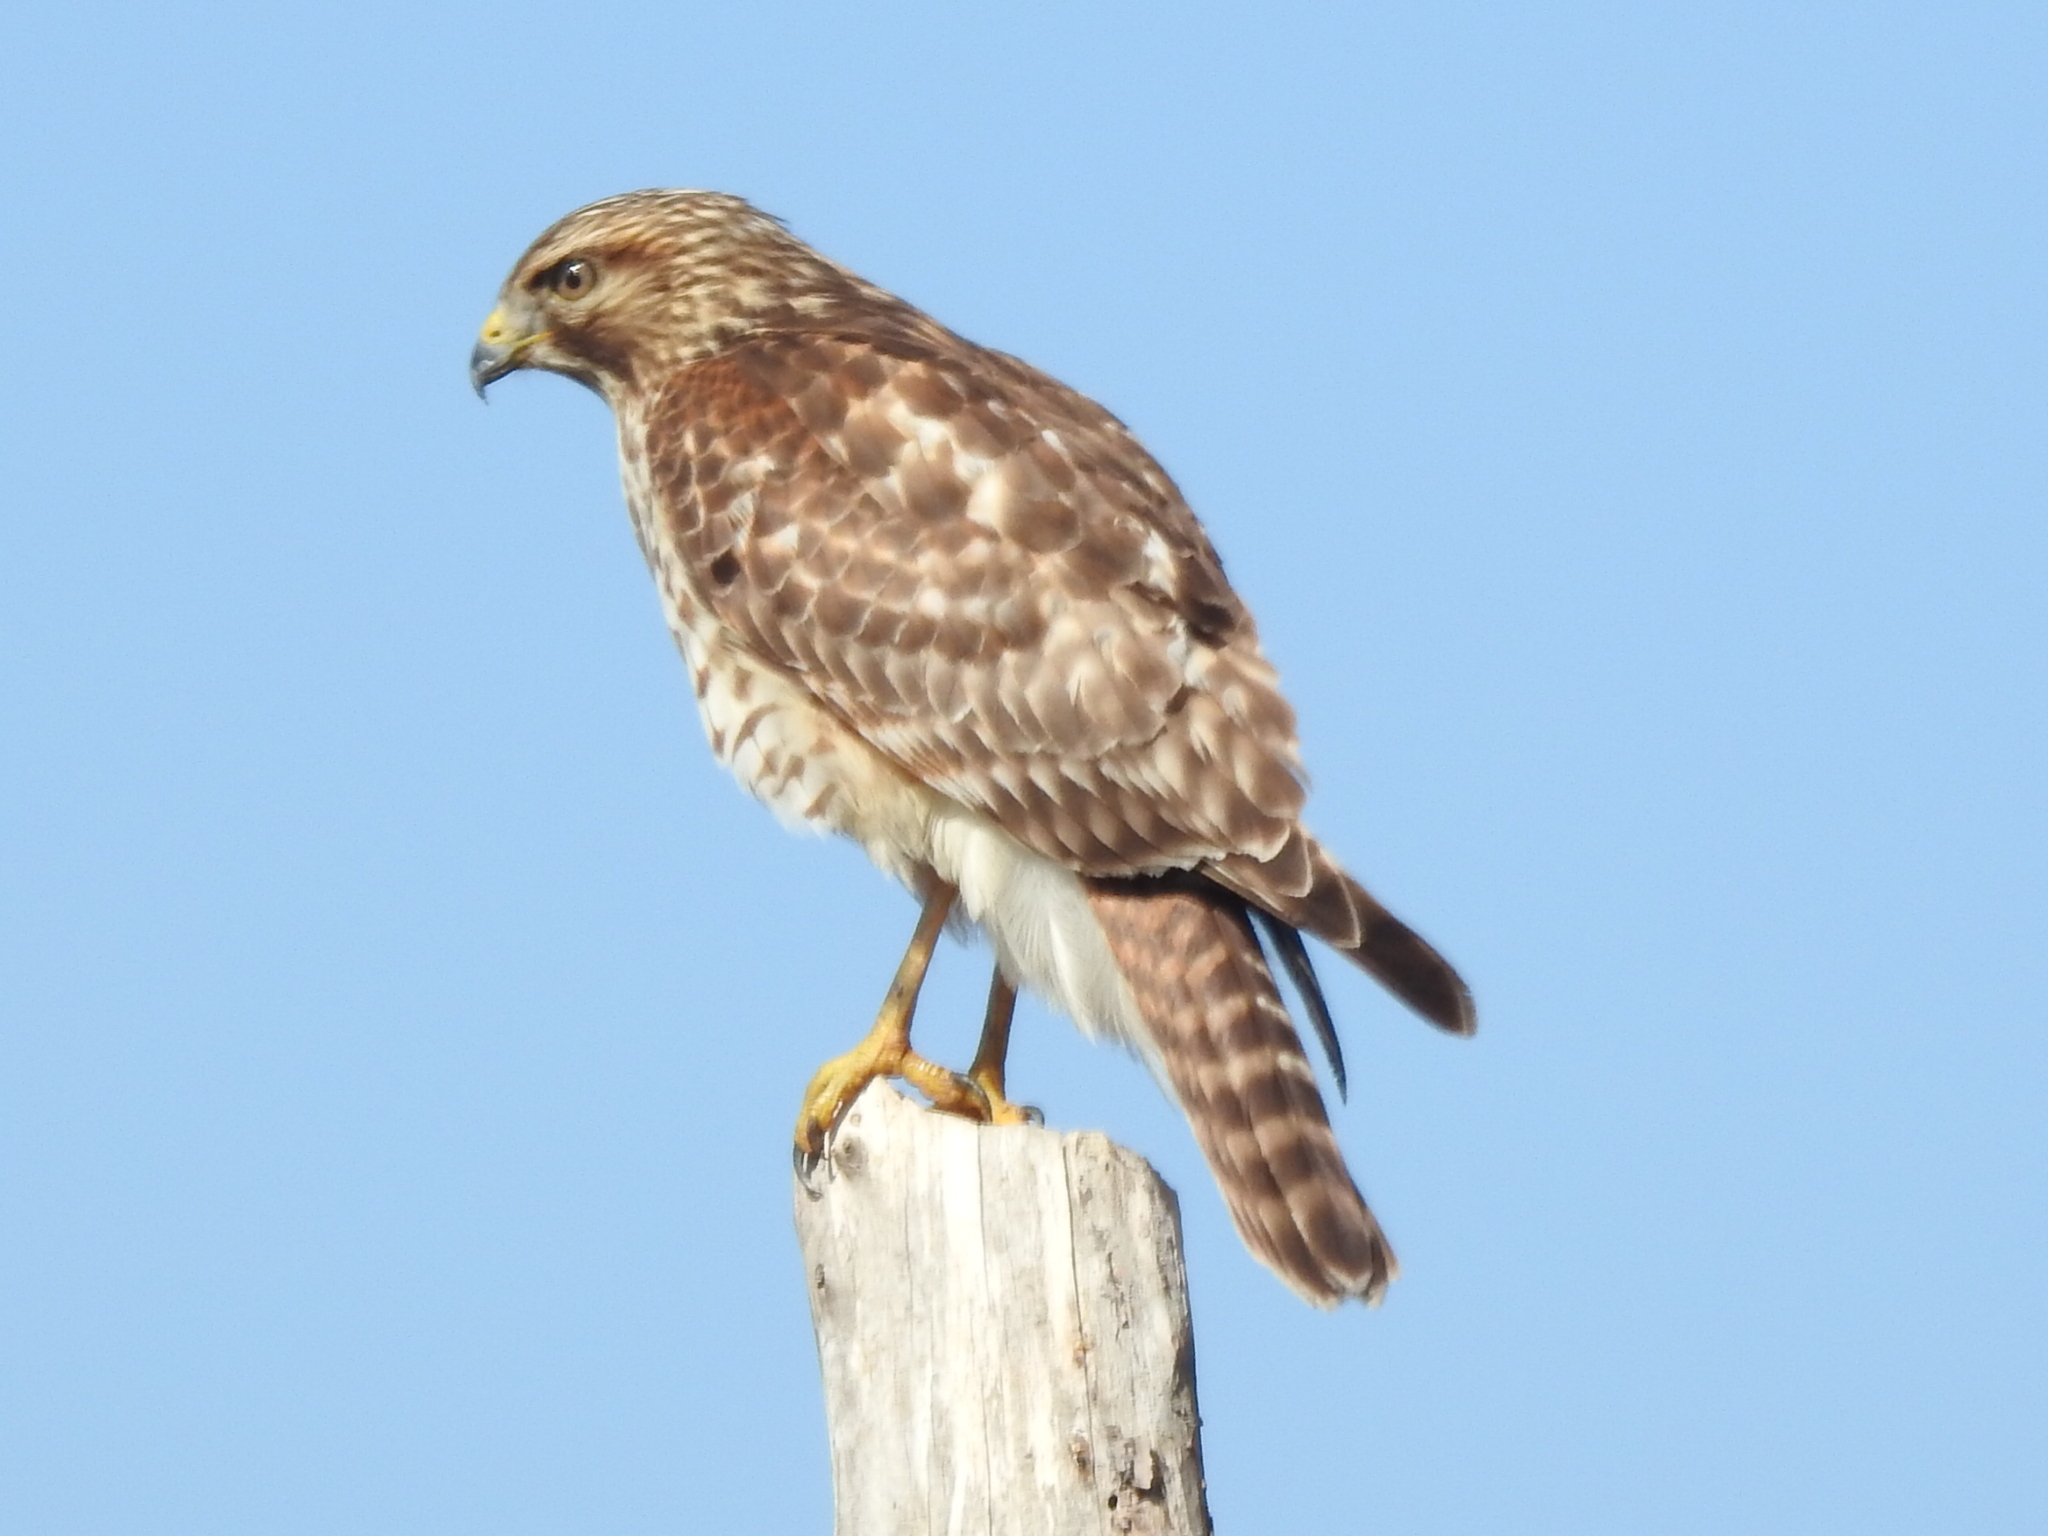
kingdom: Animalia
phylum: Chordata
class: Aves
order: Accipitriformes
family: Accipitridae
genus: Buteo
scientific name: Buteo lineatus
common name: Red-shouldered hawk
